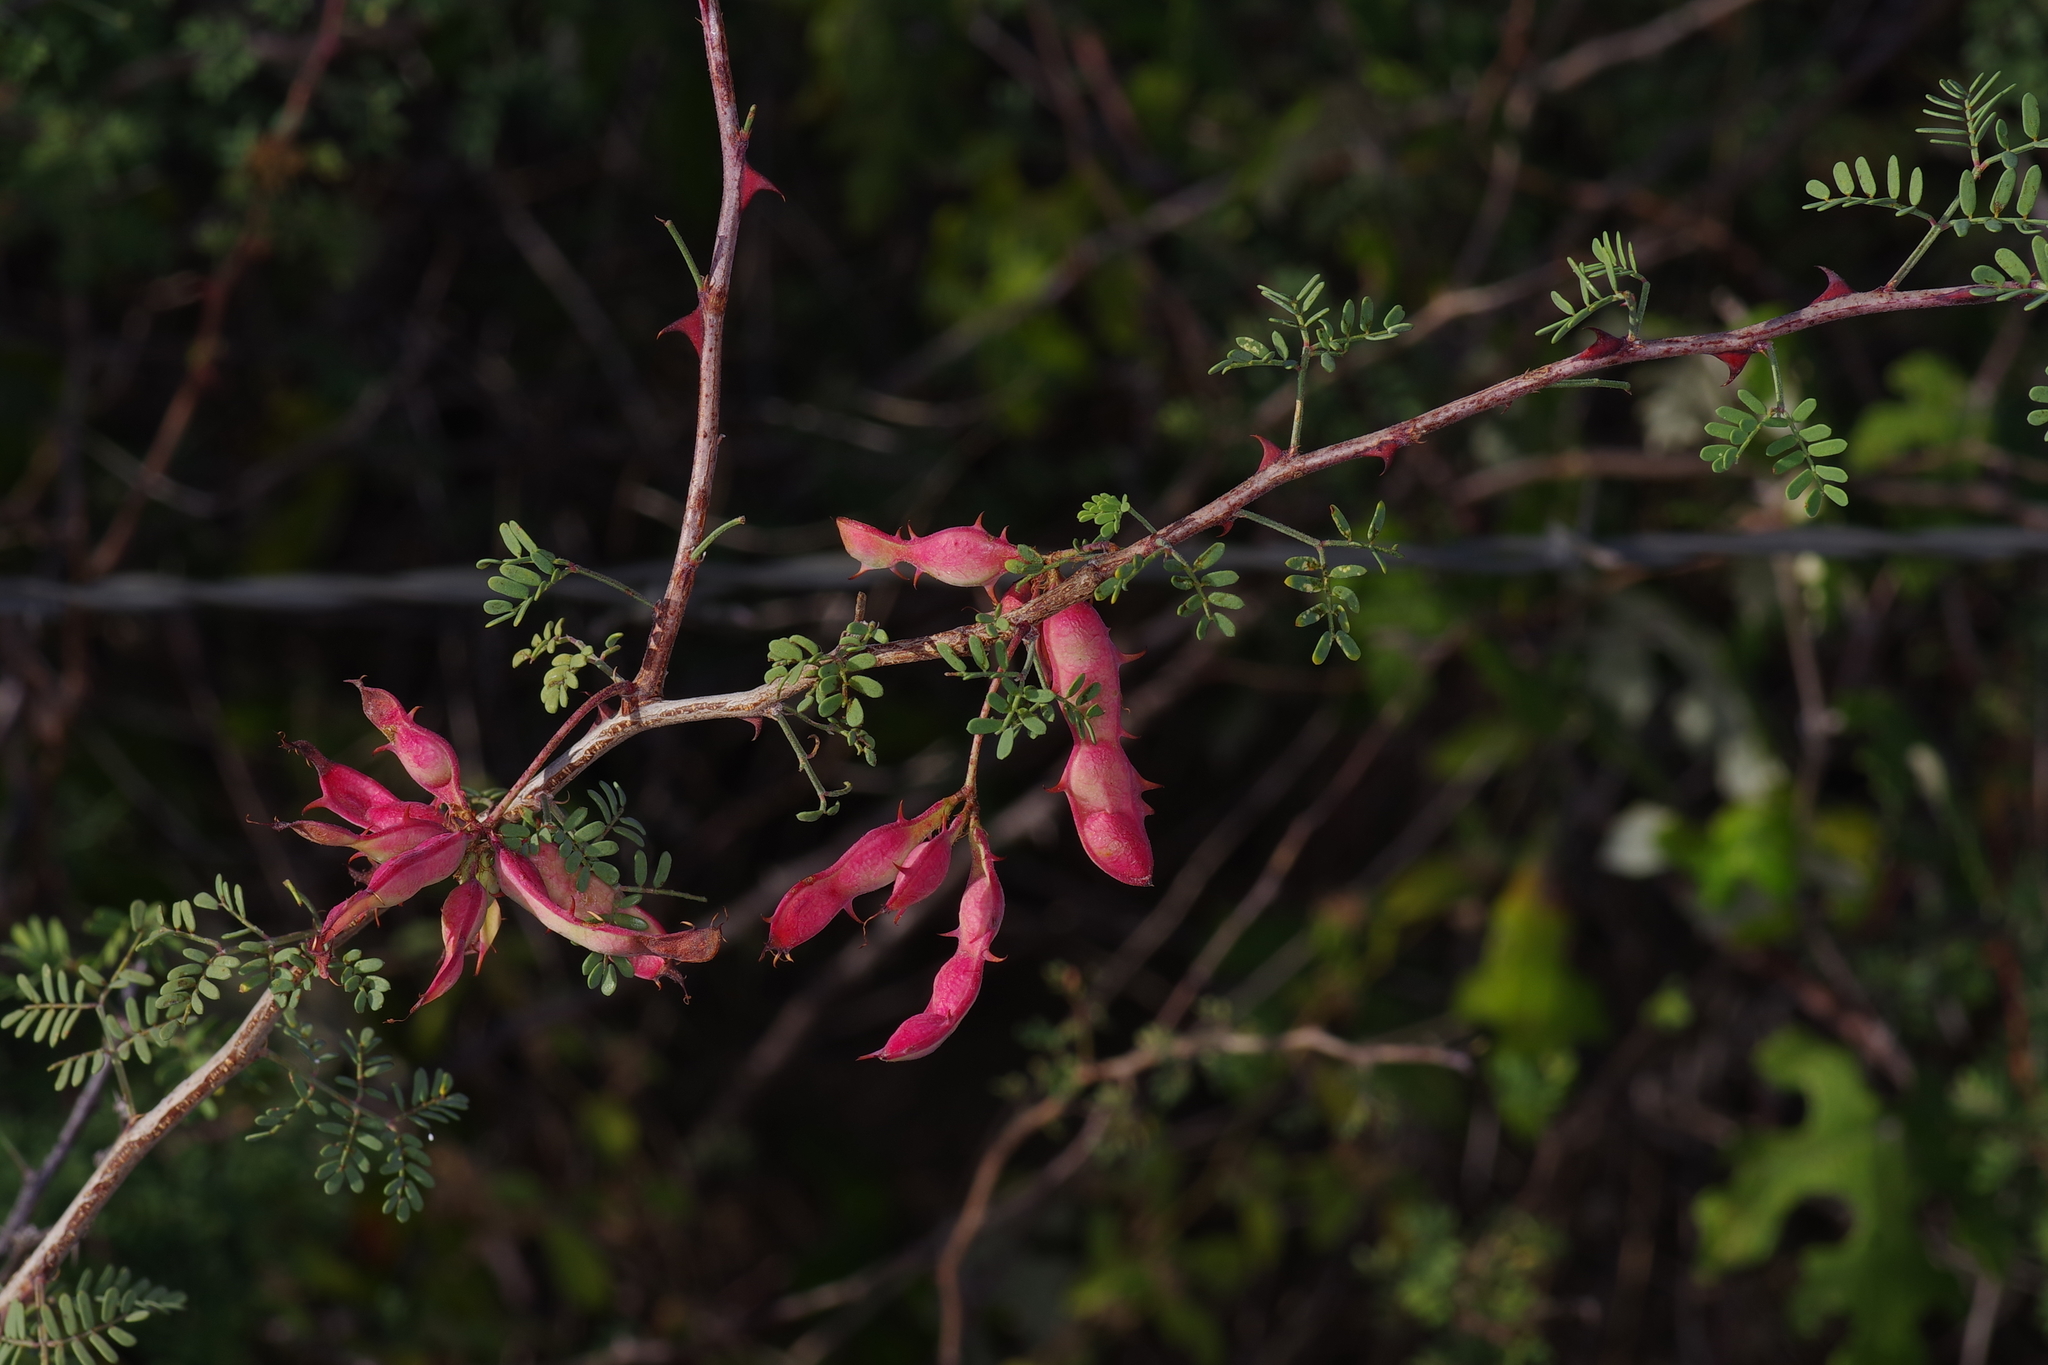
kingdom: Plantae
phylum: Tracheophyta
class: Magnoliopsida
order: Fabales
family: Fabaceae
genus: Mimosa
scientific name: Mimosa texana
